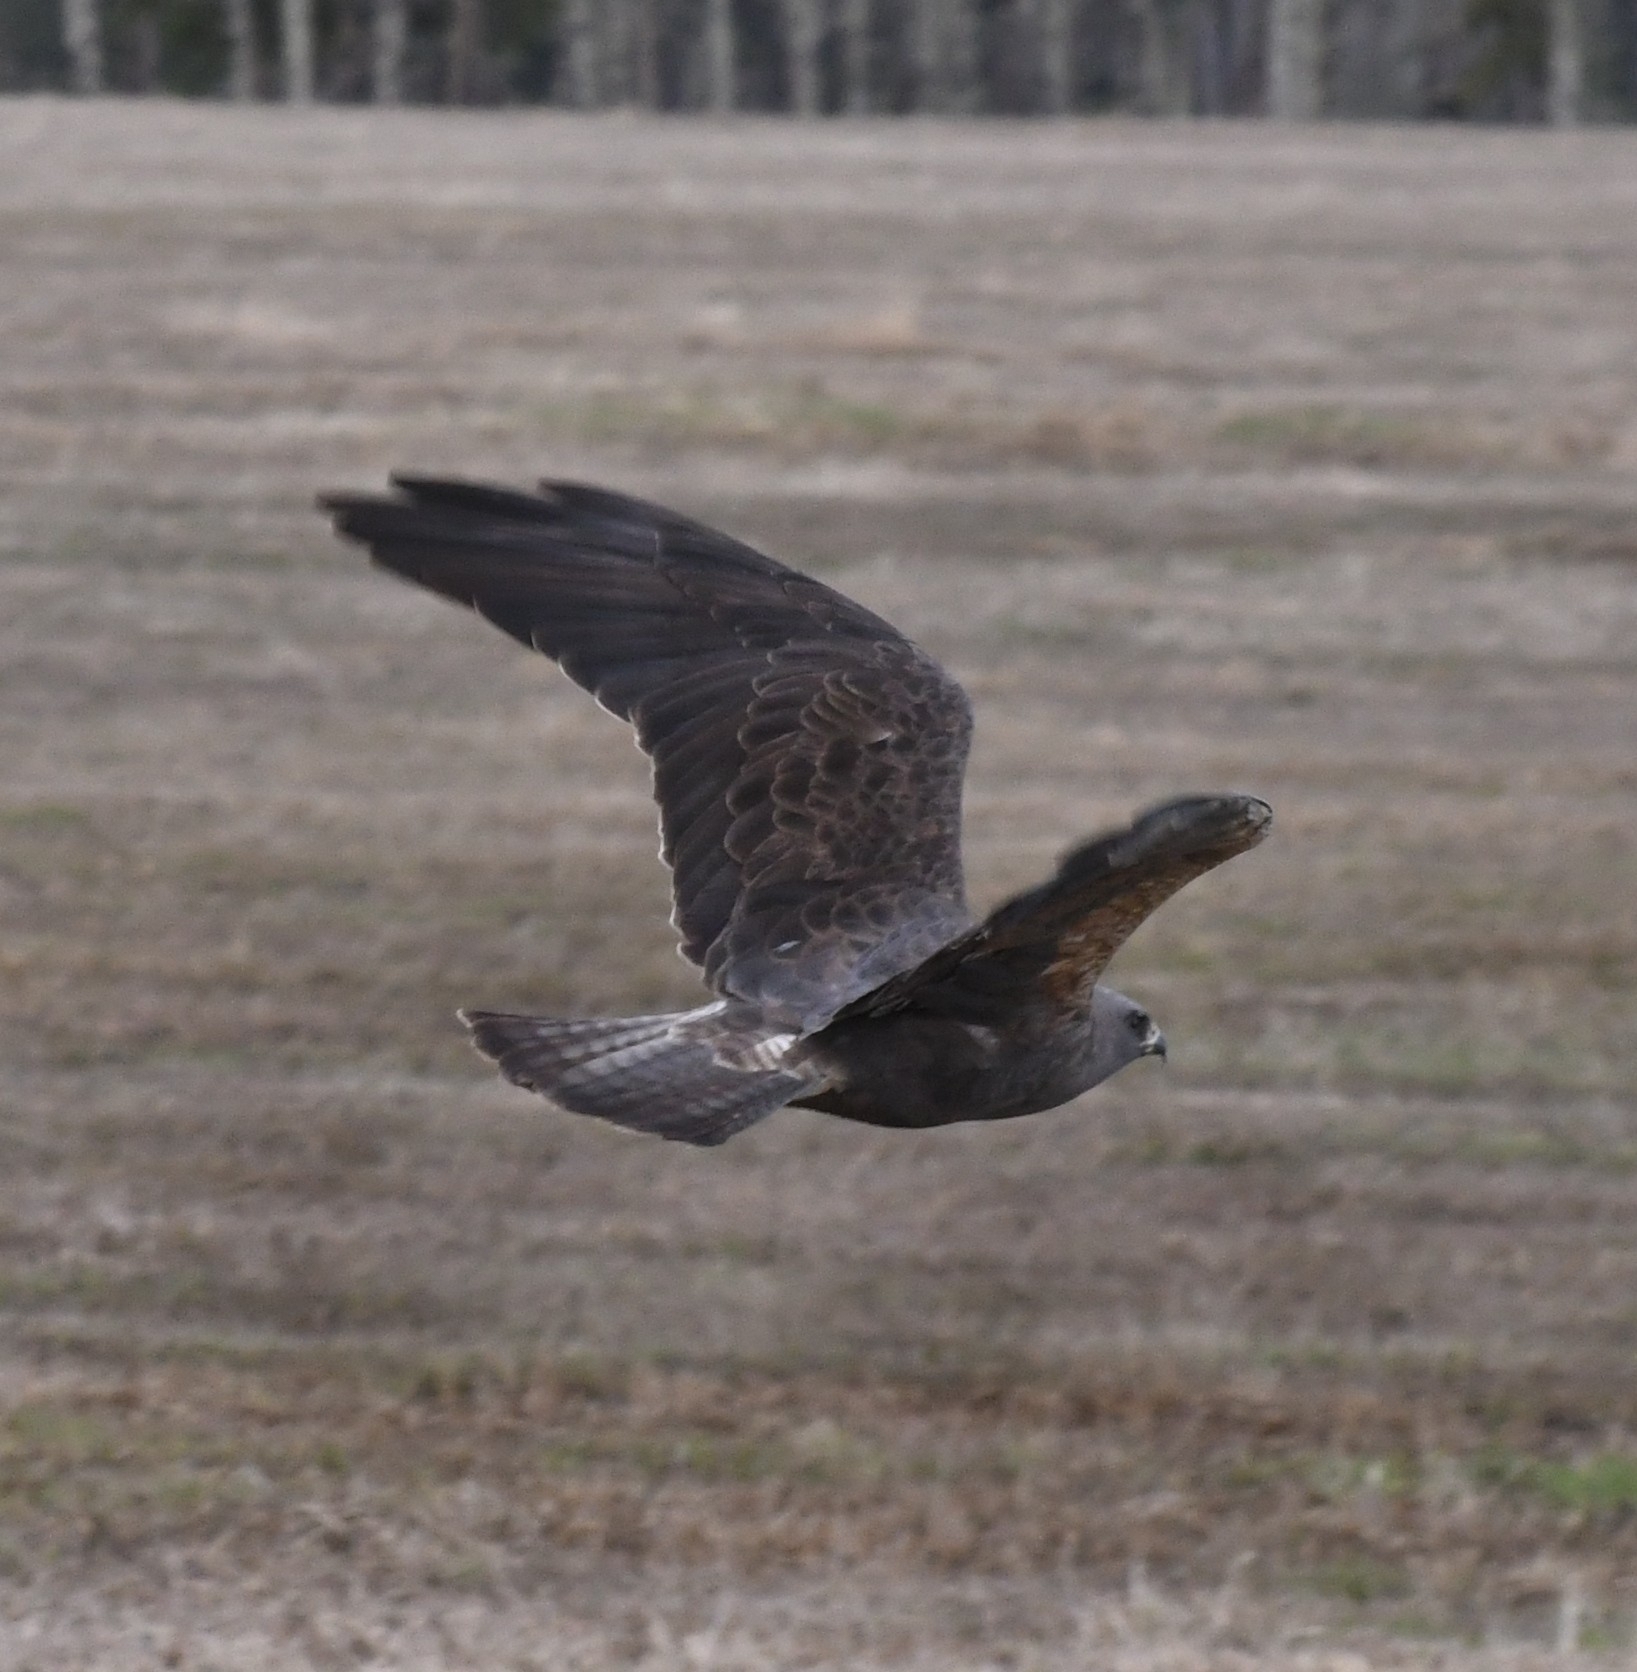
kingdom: Animalia
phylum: Chordata
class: Aves
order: Accipitriformes
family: Accipitridae
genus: Buteo
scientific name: Buteo swainsoni
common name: Swainson's hawk
